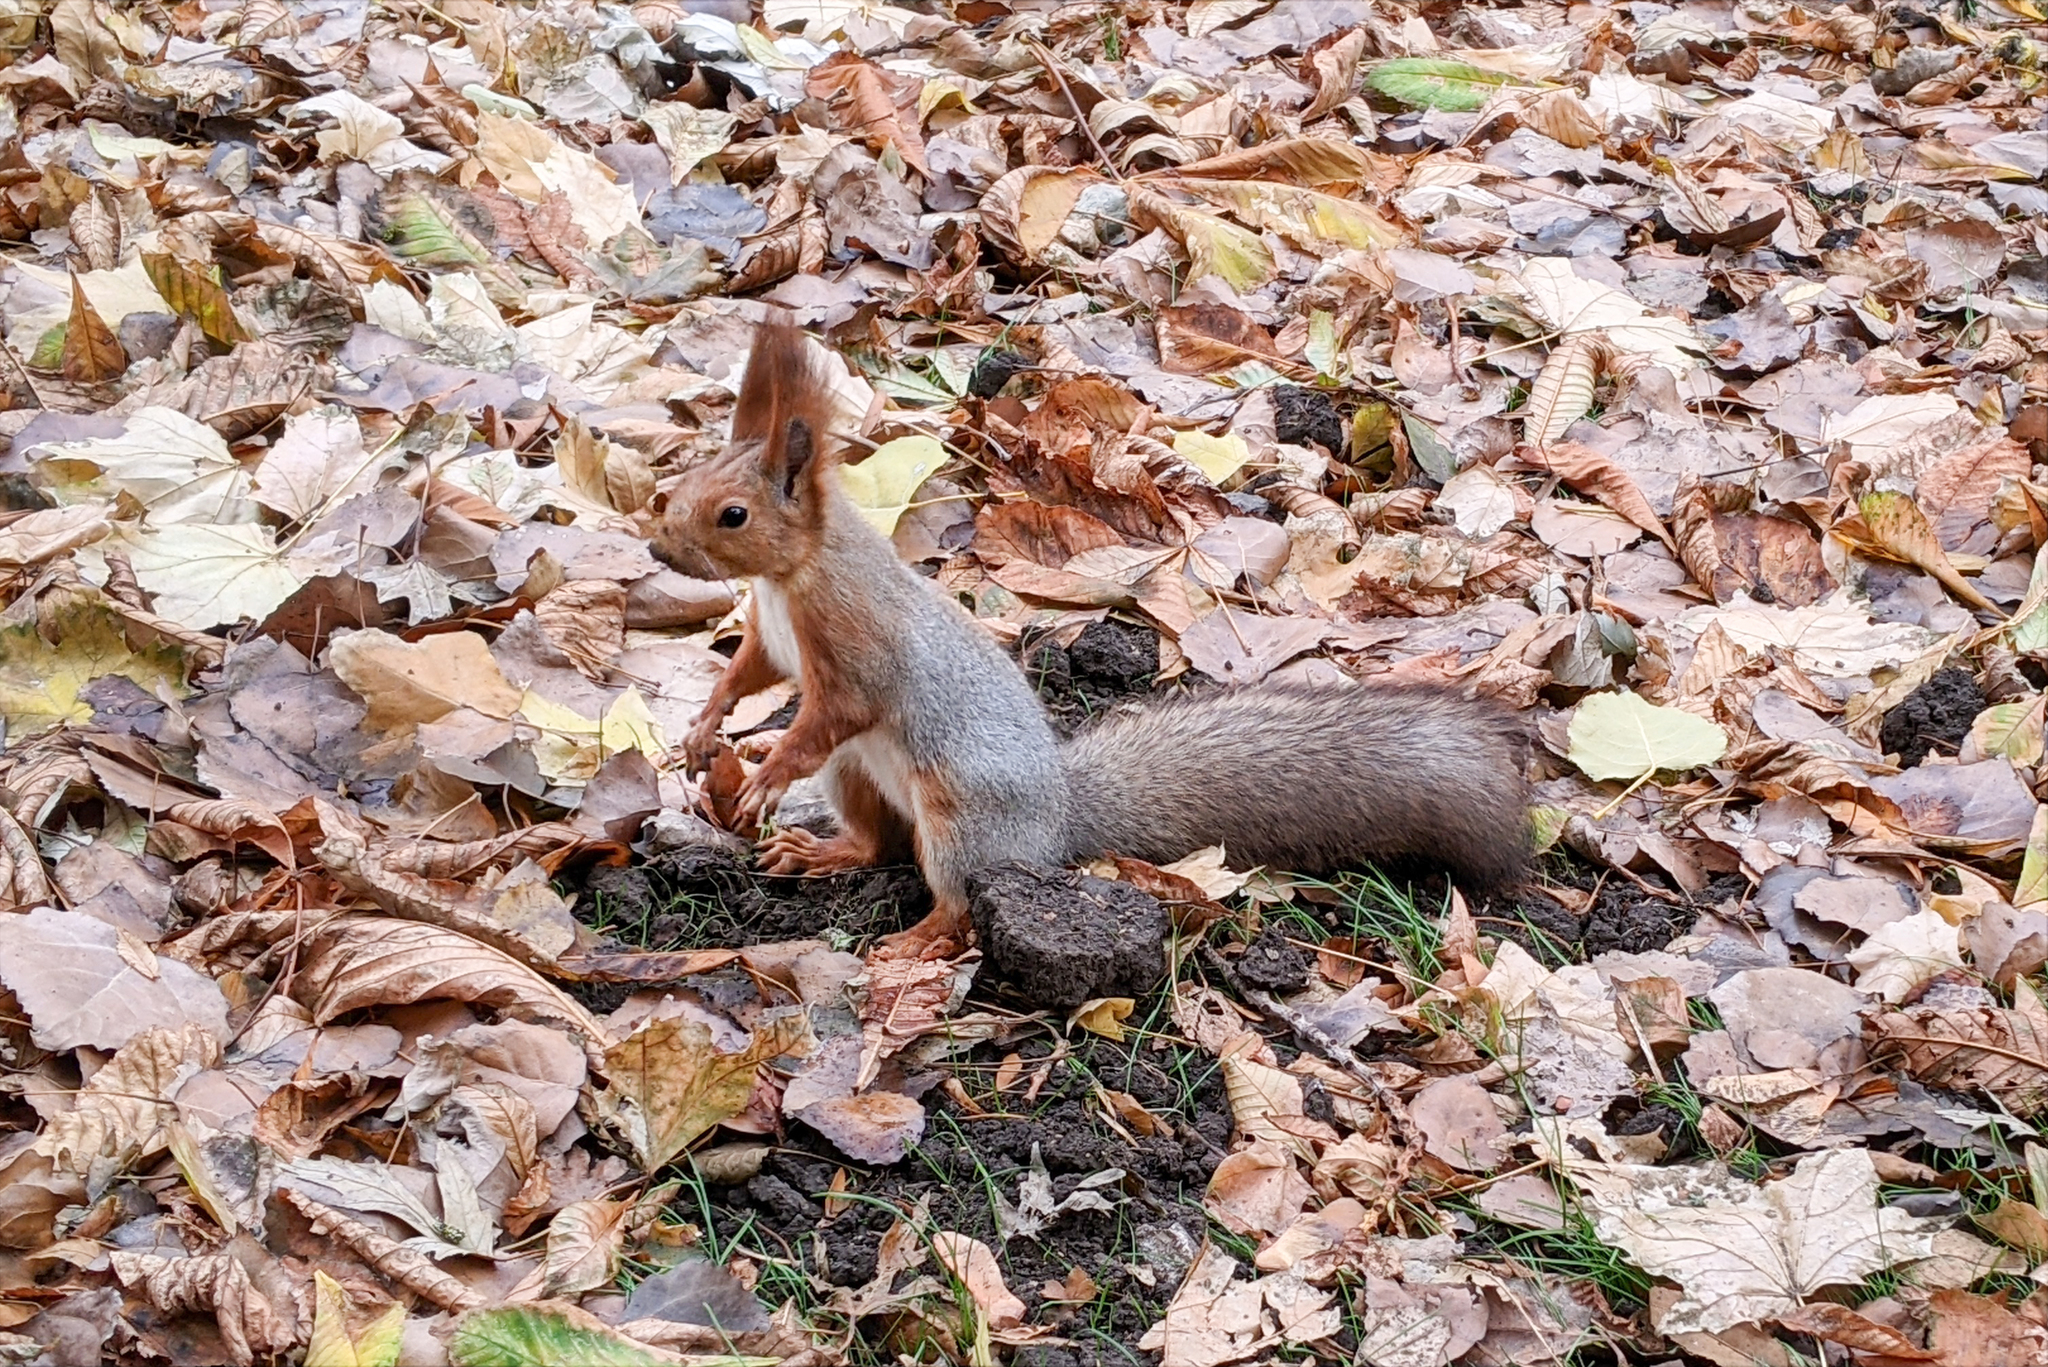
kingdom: Animalia
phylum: Chordata
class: Mammalia
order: Rodentia
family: Sciuridae
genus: Sciurus
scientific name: Sciurus vulgaris
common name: Eurasian red squirrel
